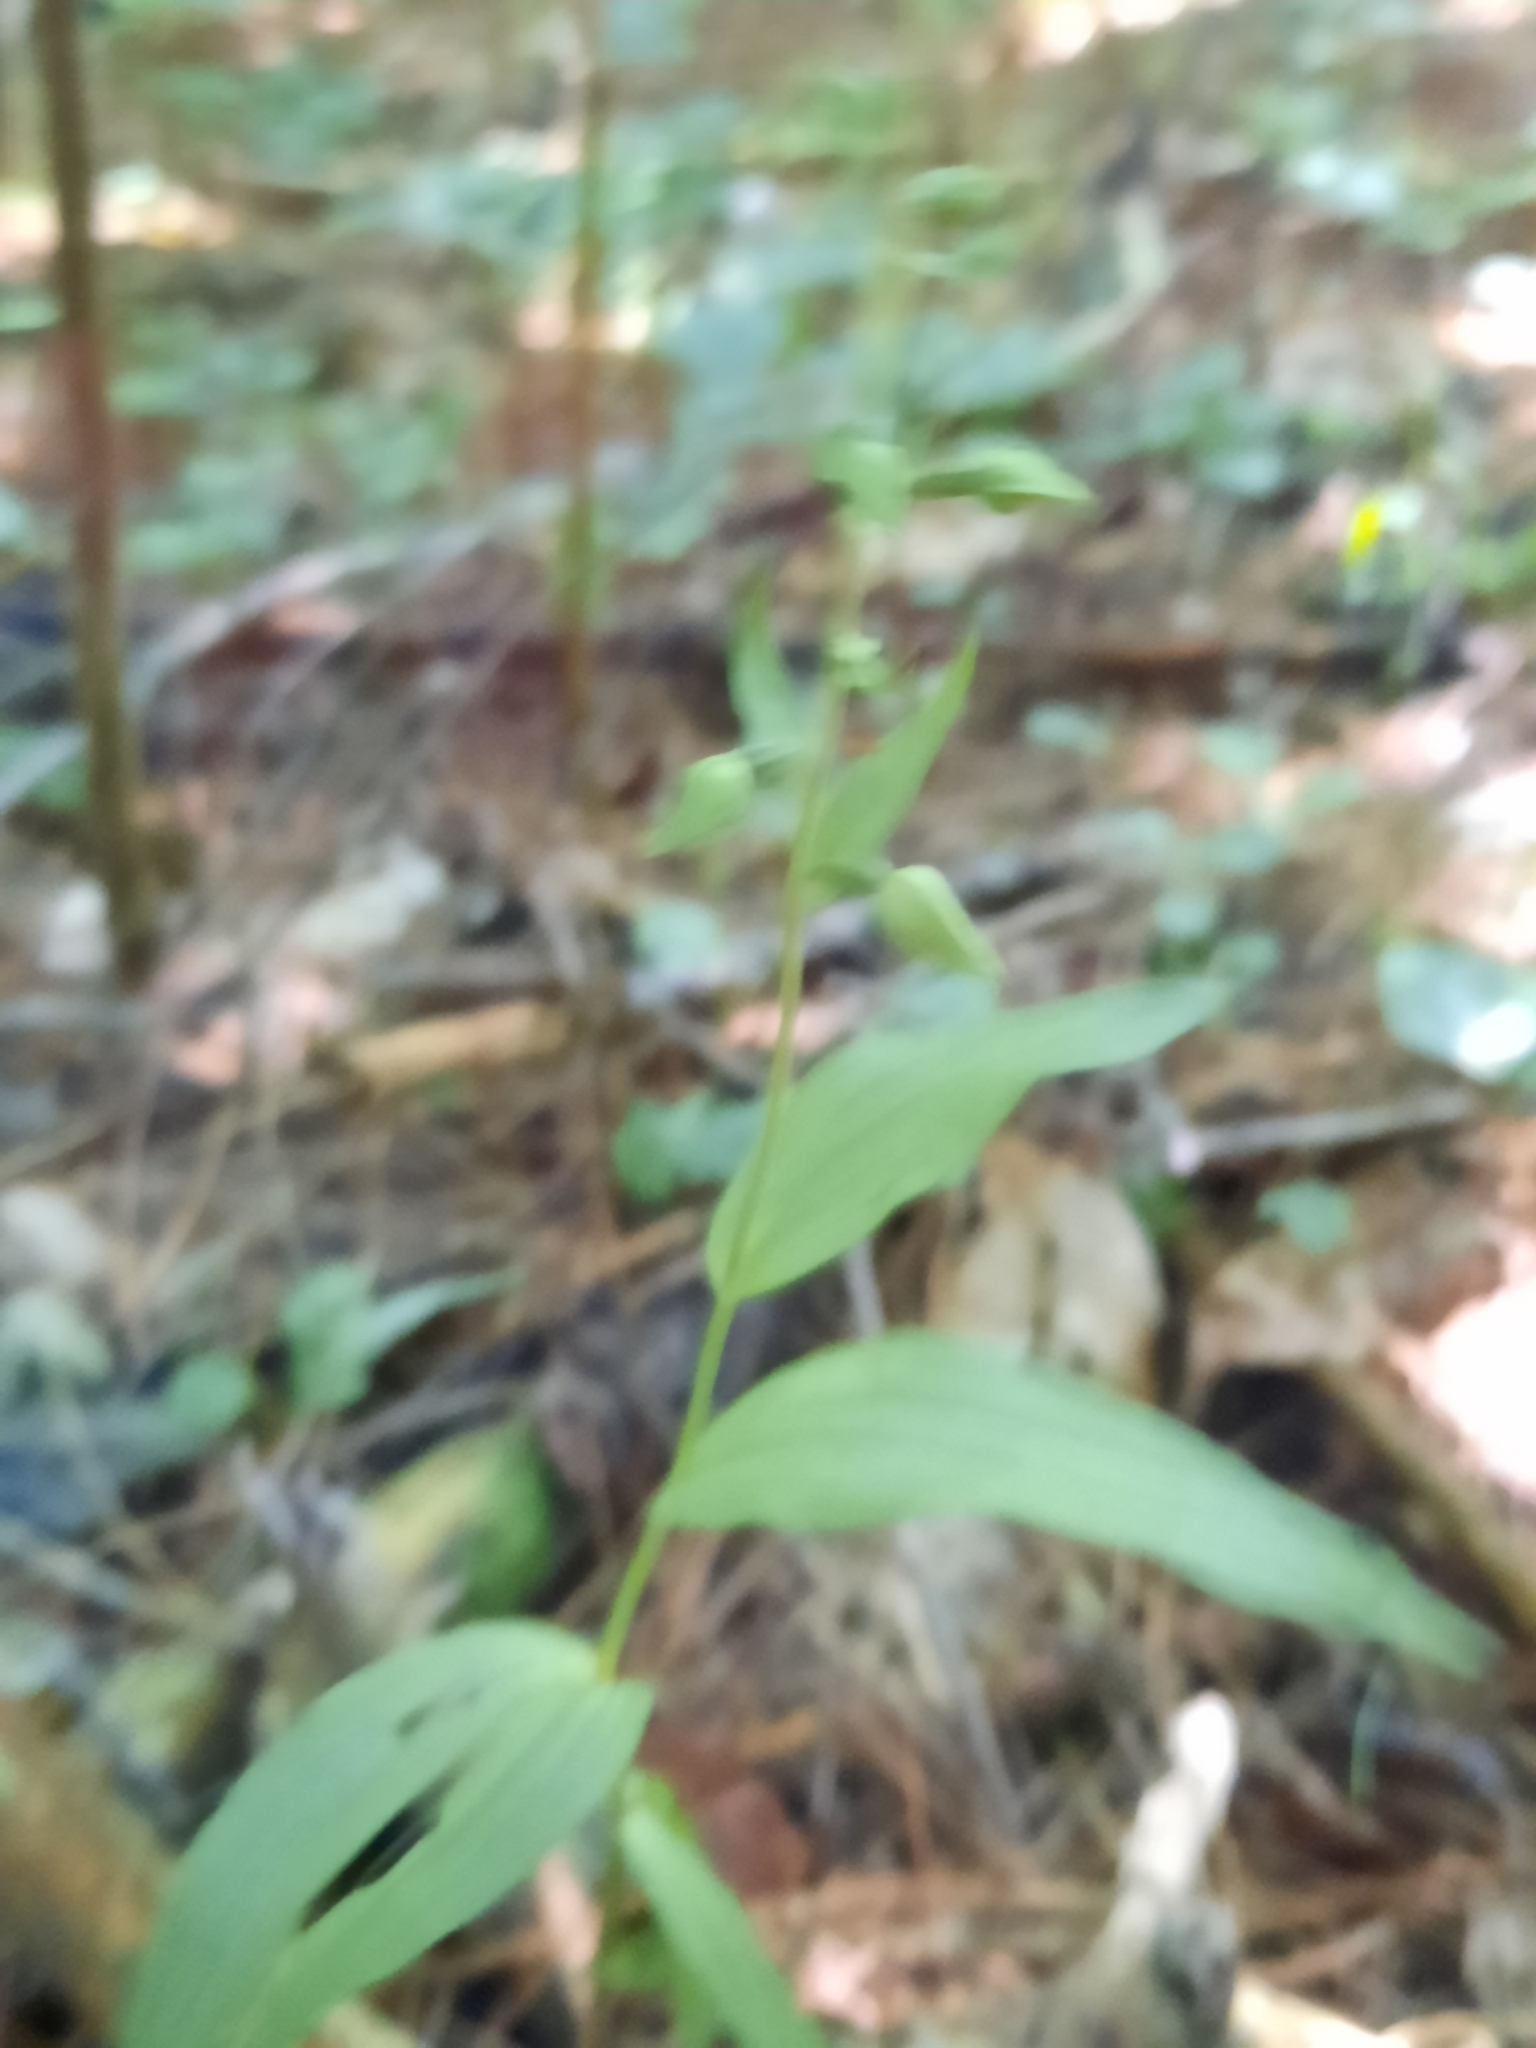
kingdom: Plantae
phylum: Tracheophyta
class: Liliopsida
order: Asparagales
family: Orchidaceae
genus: Epipactis
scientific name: Epipactis helleborine
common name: Broad-leaved helleborine
